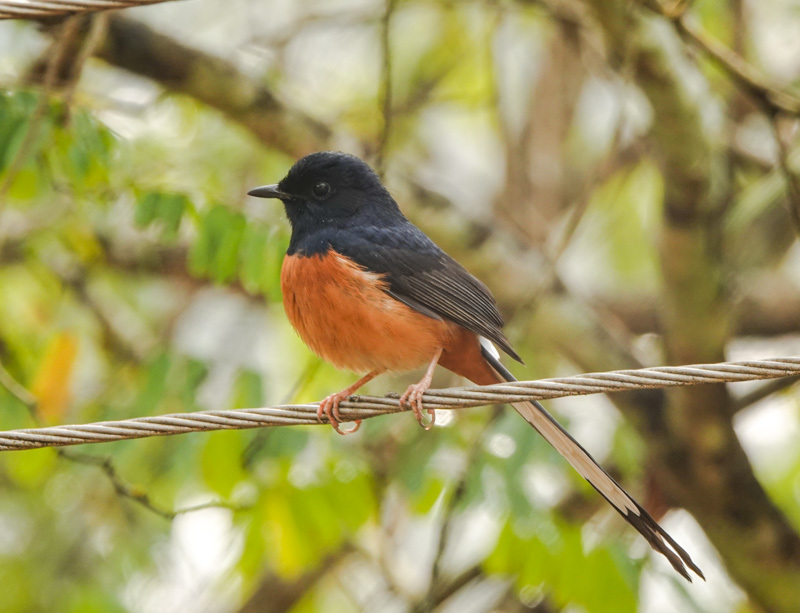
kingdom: Animalia
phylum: Chordata
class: Aves
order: Passeriformes
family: Muscicapidae
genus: Copsychus
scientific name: Copsychus malabaricus
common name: White-rumped shama
